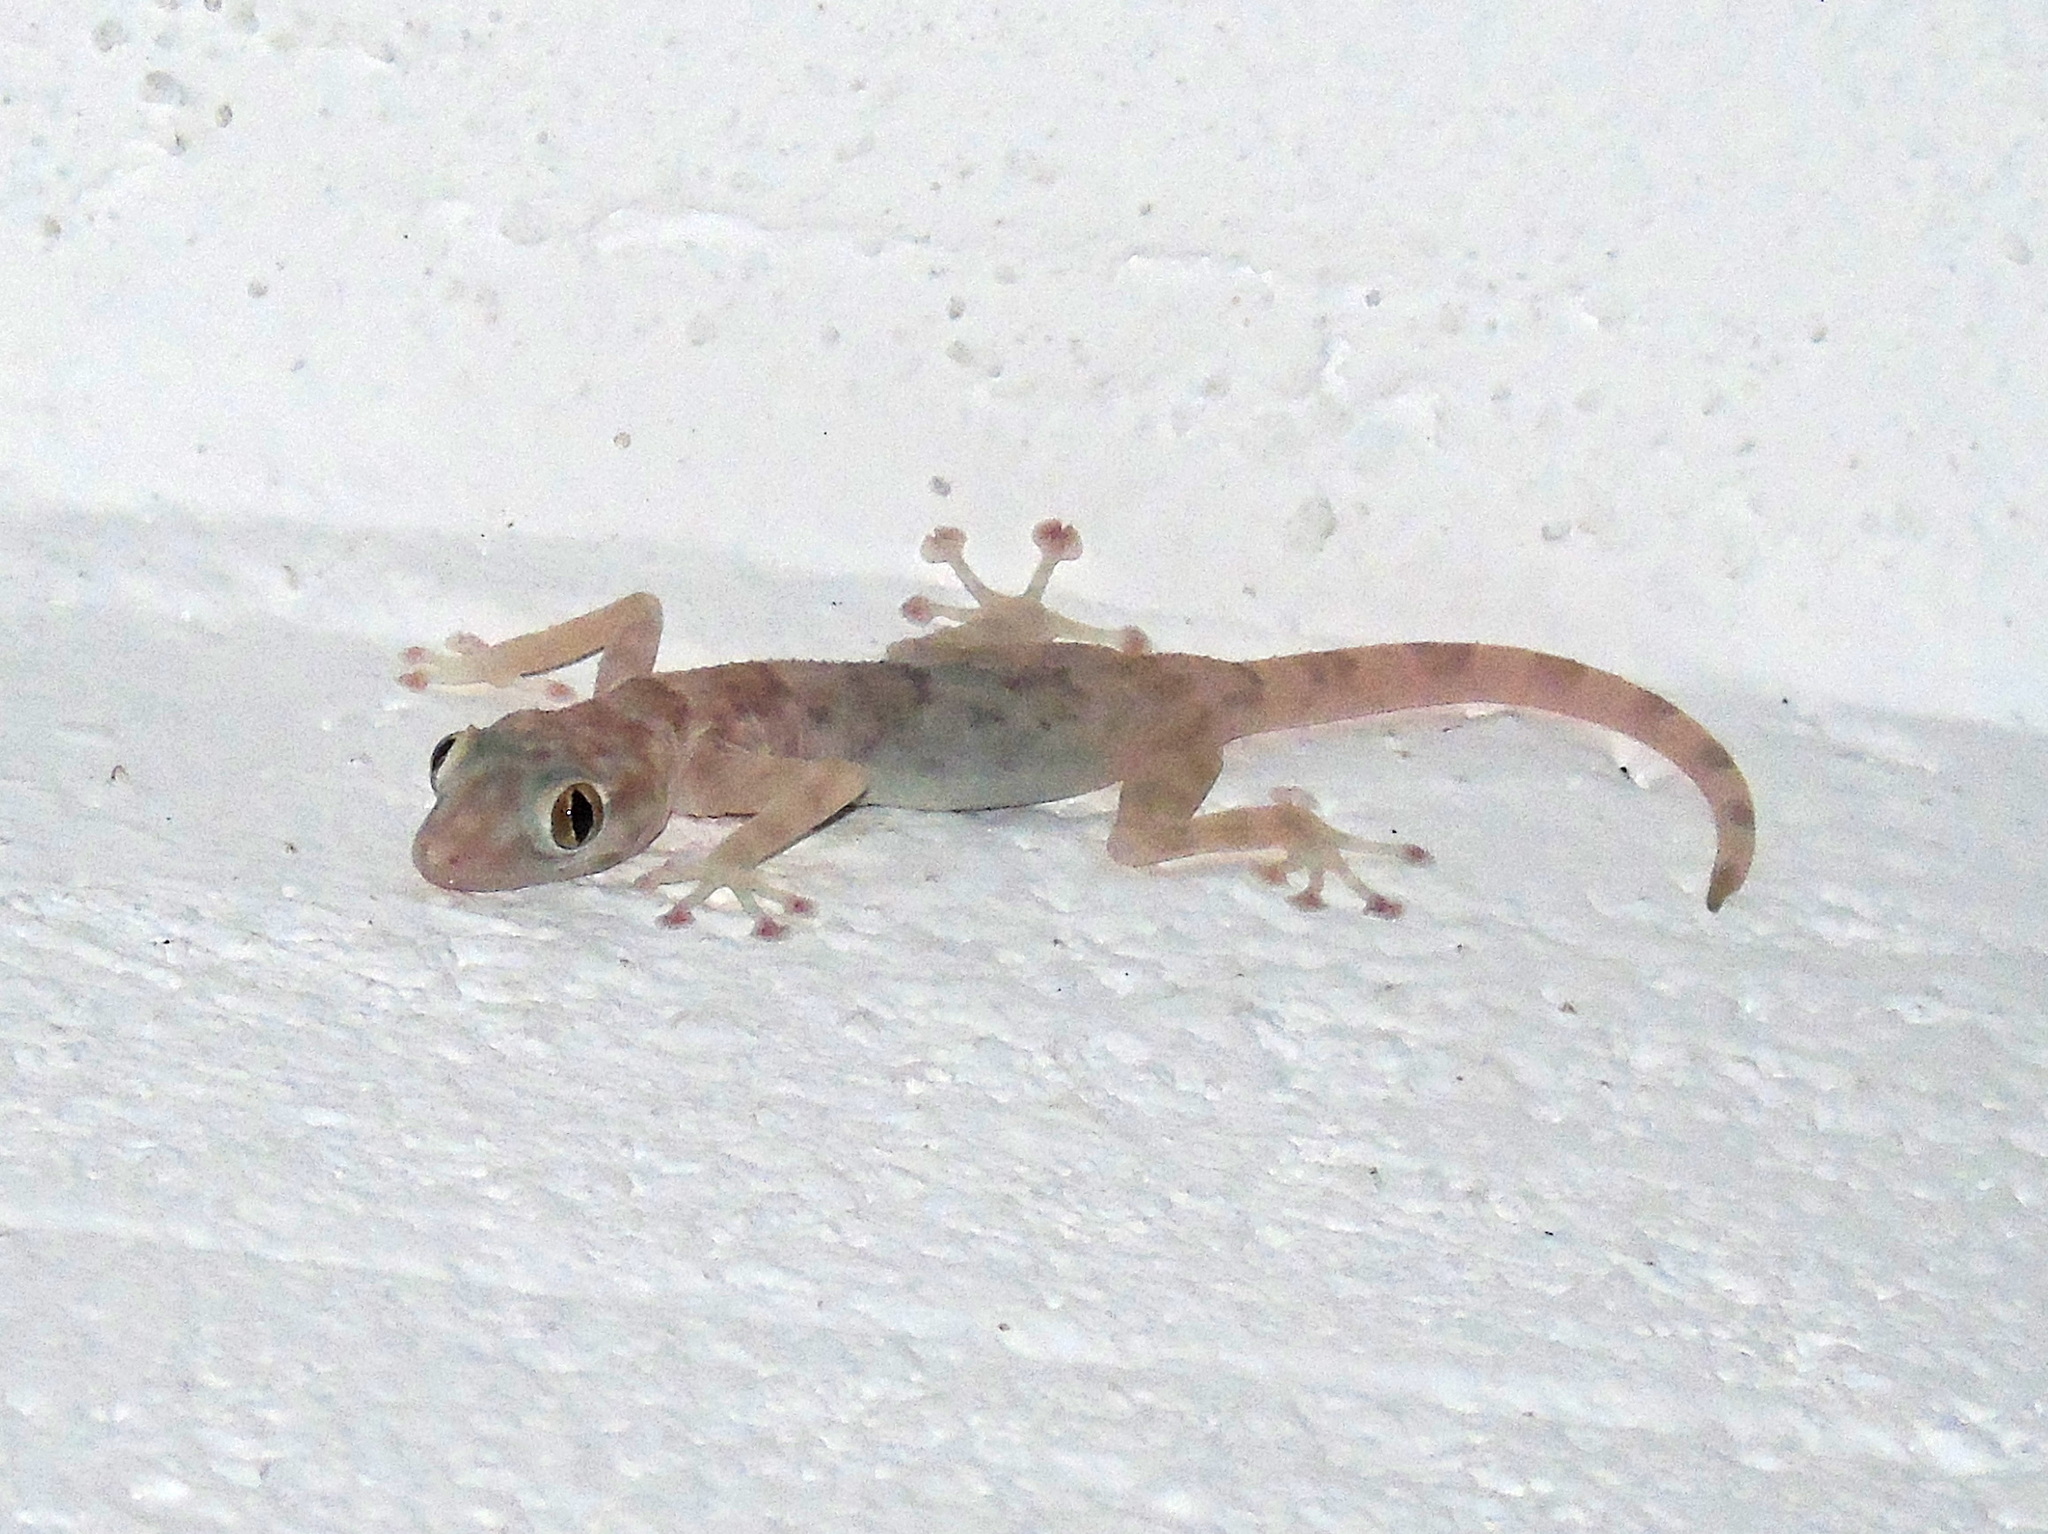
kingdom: Animalia
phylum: Chordata
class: Squamata
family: Phyllodactylidae
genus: Ptyodactylus
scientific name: Ptyodactylus hasselquistii
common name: Hasselquist’s fan-footed gecko
